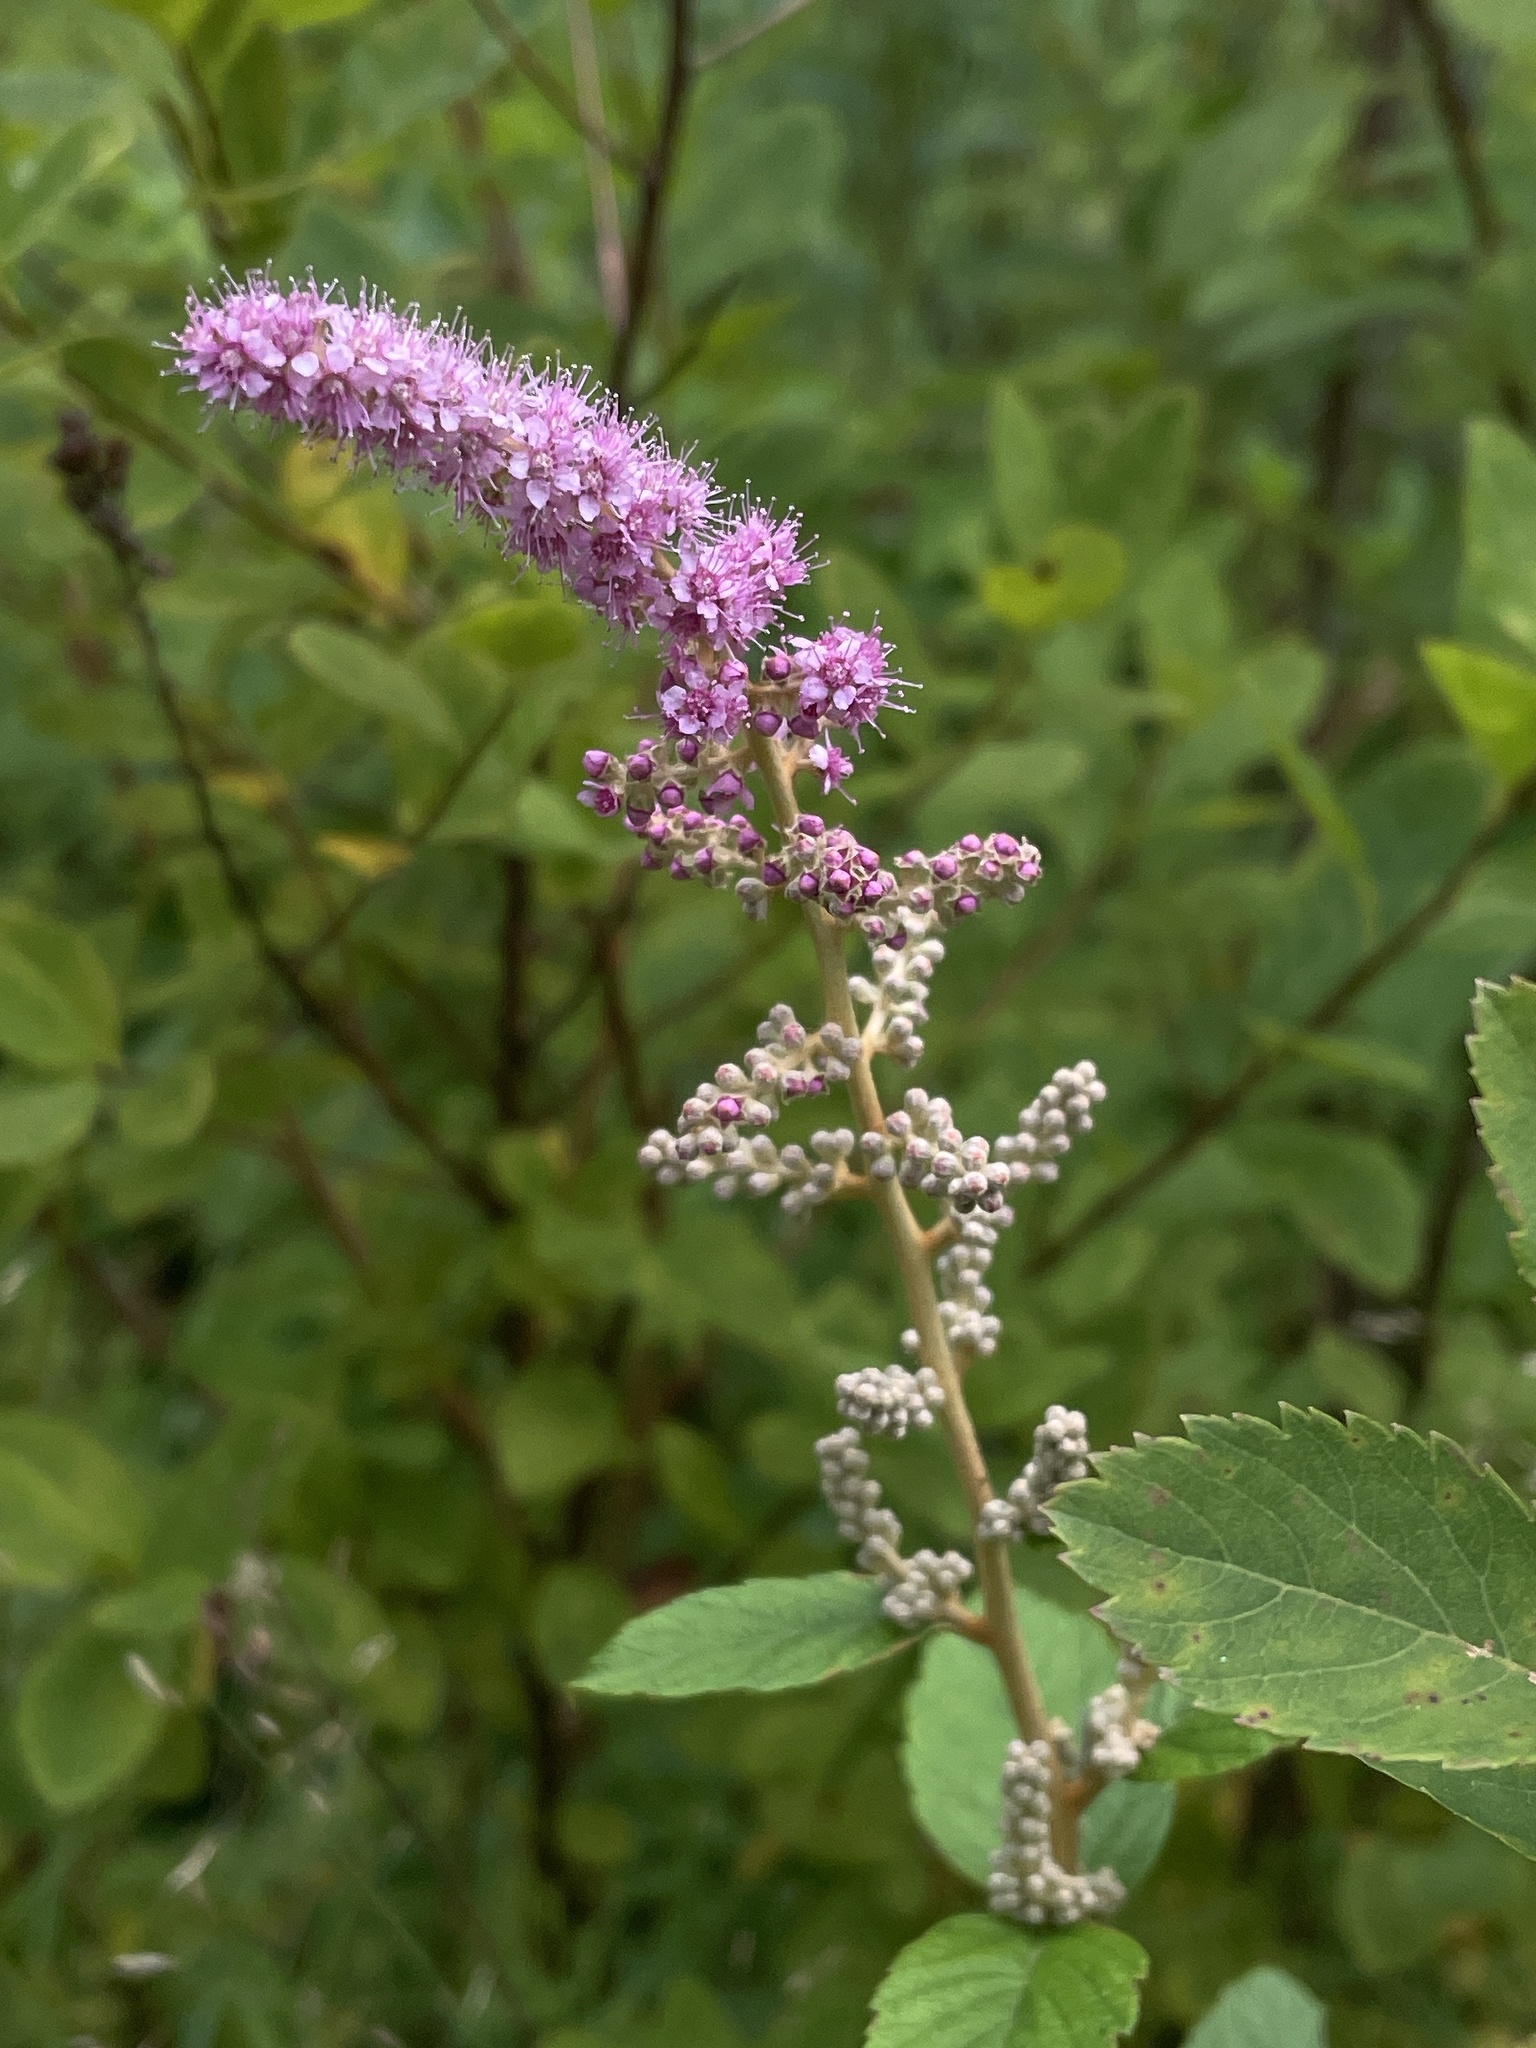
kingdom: Plantae
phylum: Tracheophyta
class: Magnoliopsida
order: Rosales
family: Rosaceae
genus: Spiraea
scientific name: Spiraea tomentosa
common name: Hardhack
